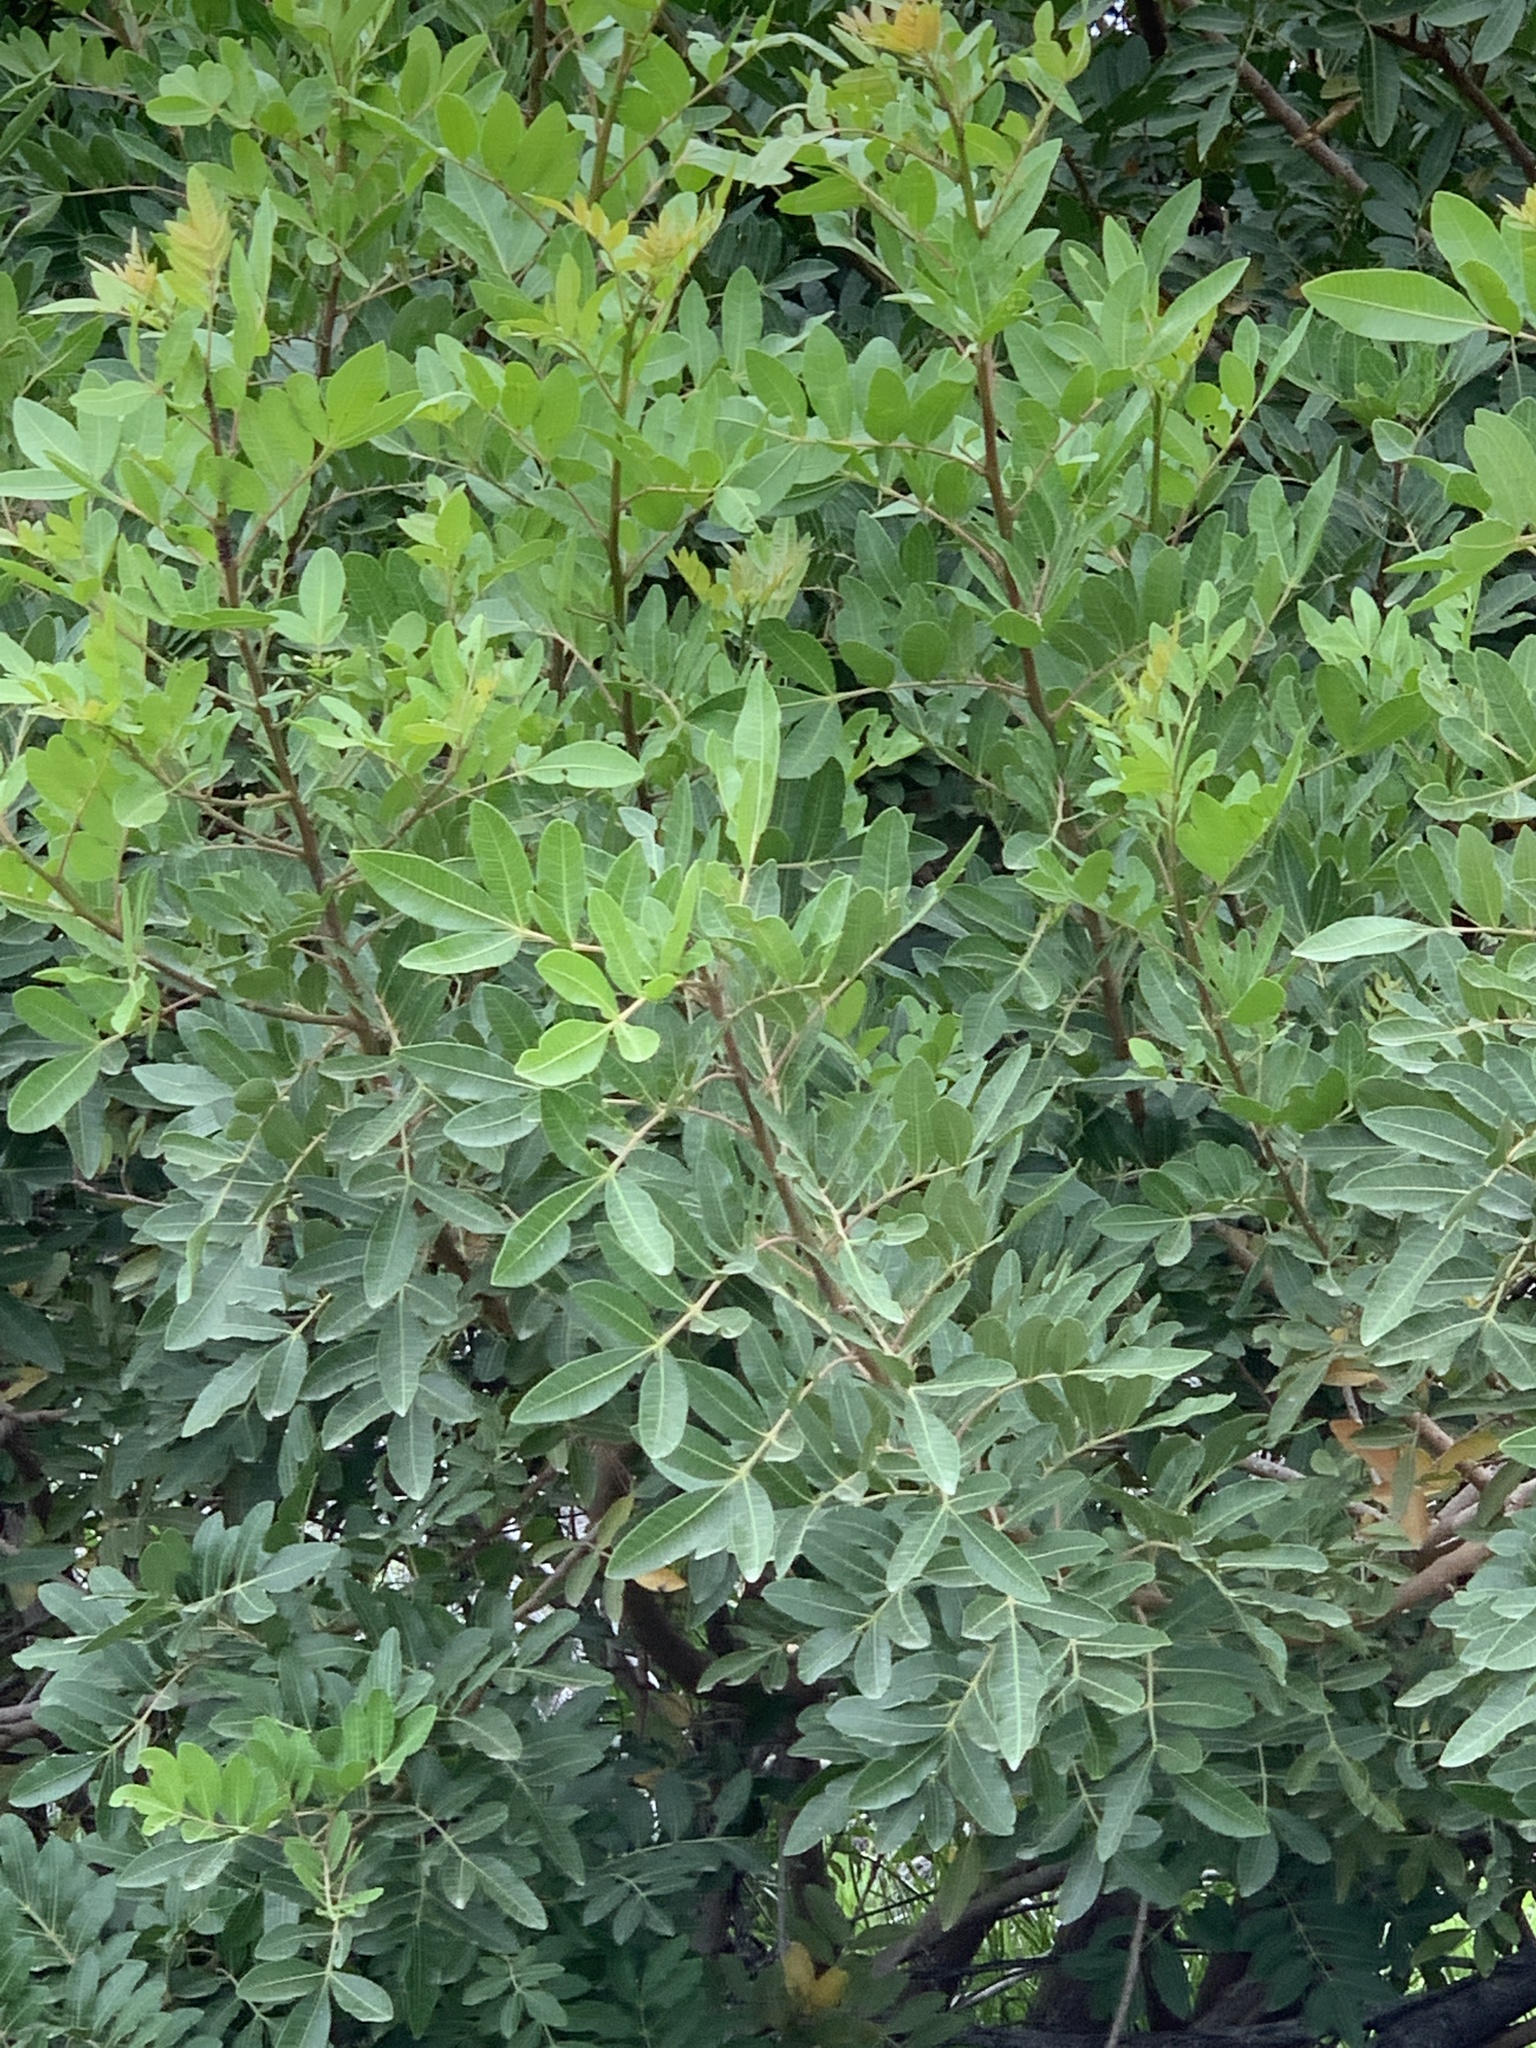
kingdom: Plantae
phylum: Tracheophyta
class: Magnoliopsida
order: Sapindales
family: Anacardiaceae
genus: Schinus
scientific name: Schinus terebinthifolia
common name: Brazilian peppertree
